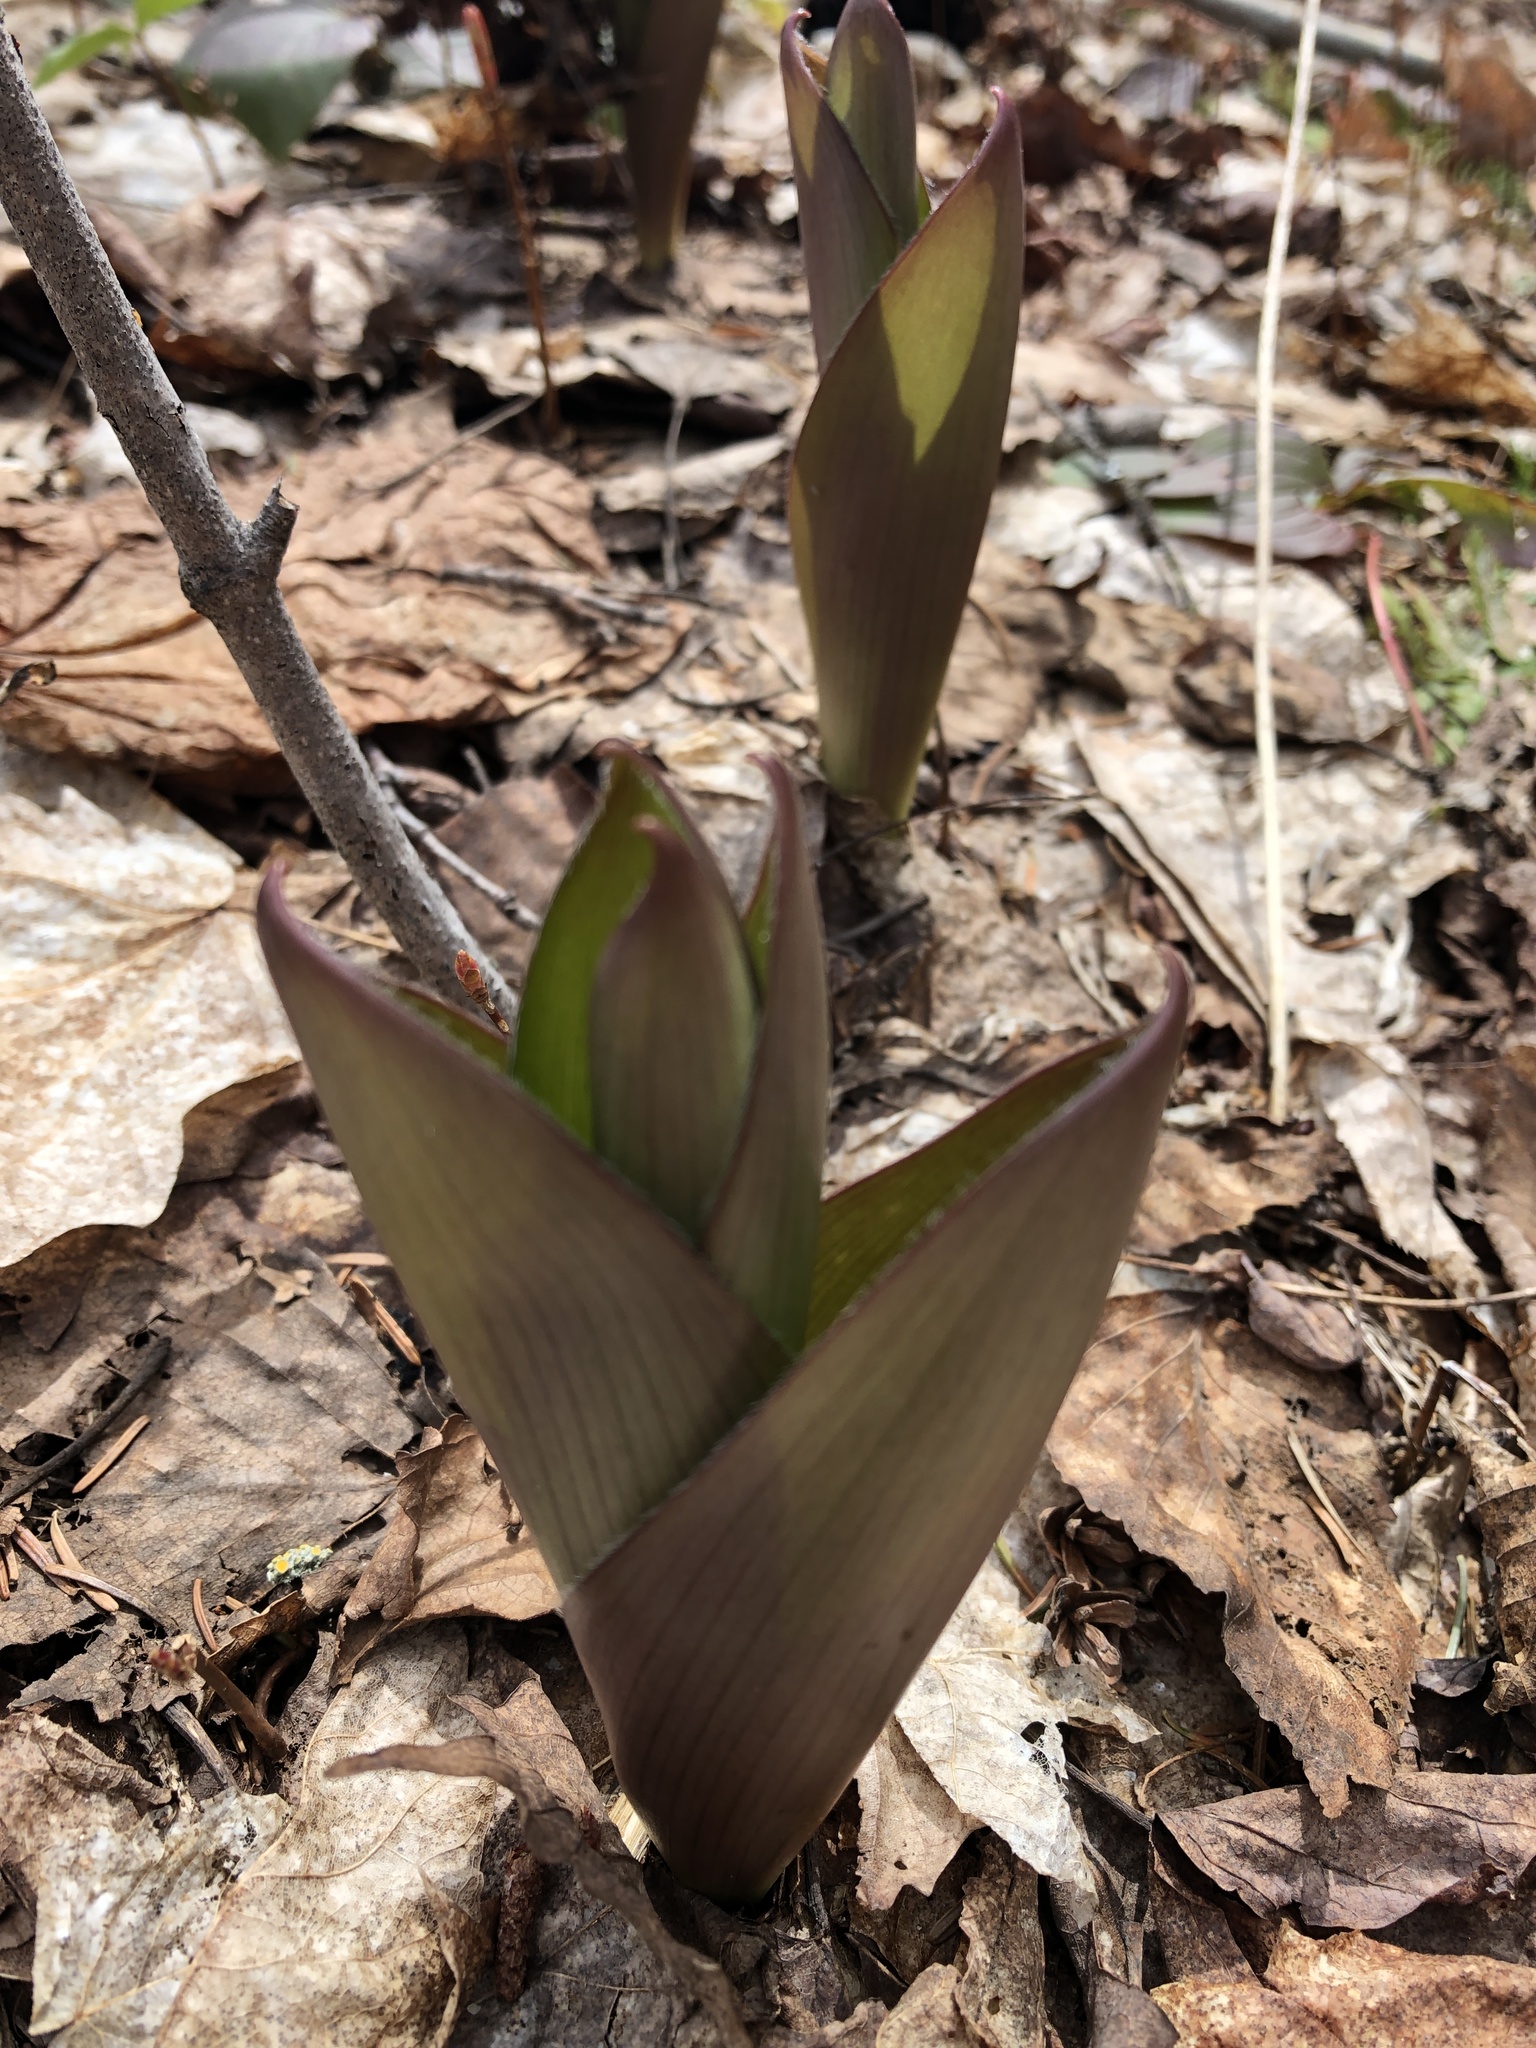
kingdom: Plantae
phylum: Tracheophyta
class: Liliopsida
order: Liliales
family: Liliaceae
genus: Clintonia
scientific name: Clintonia borealis
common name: Yellow clintonia
